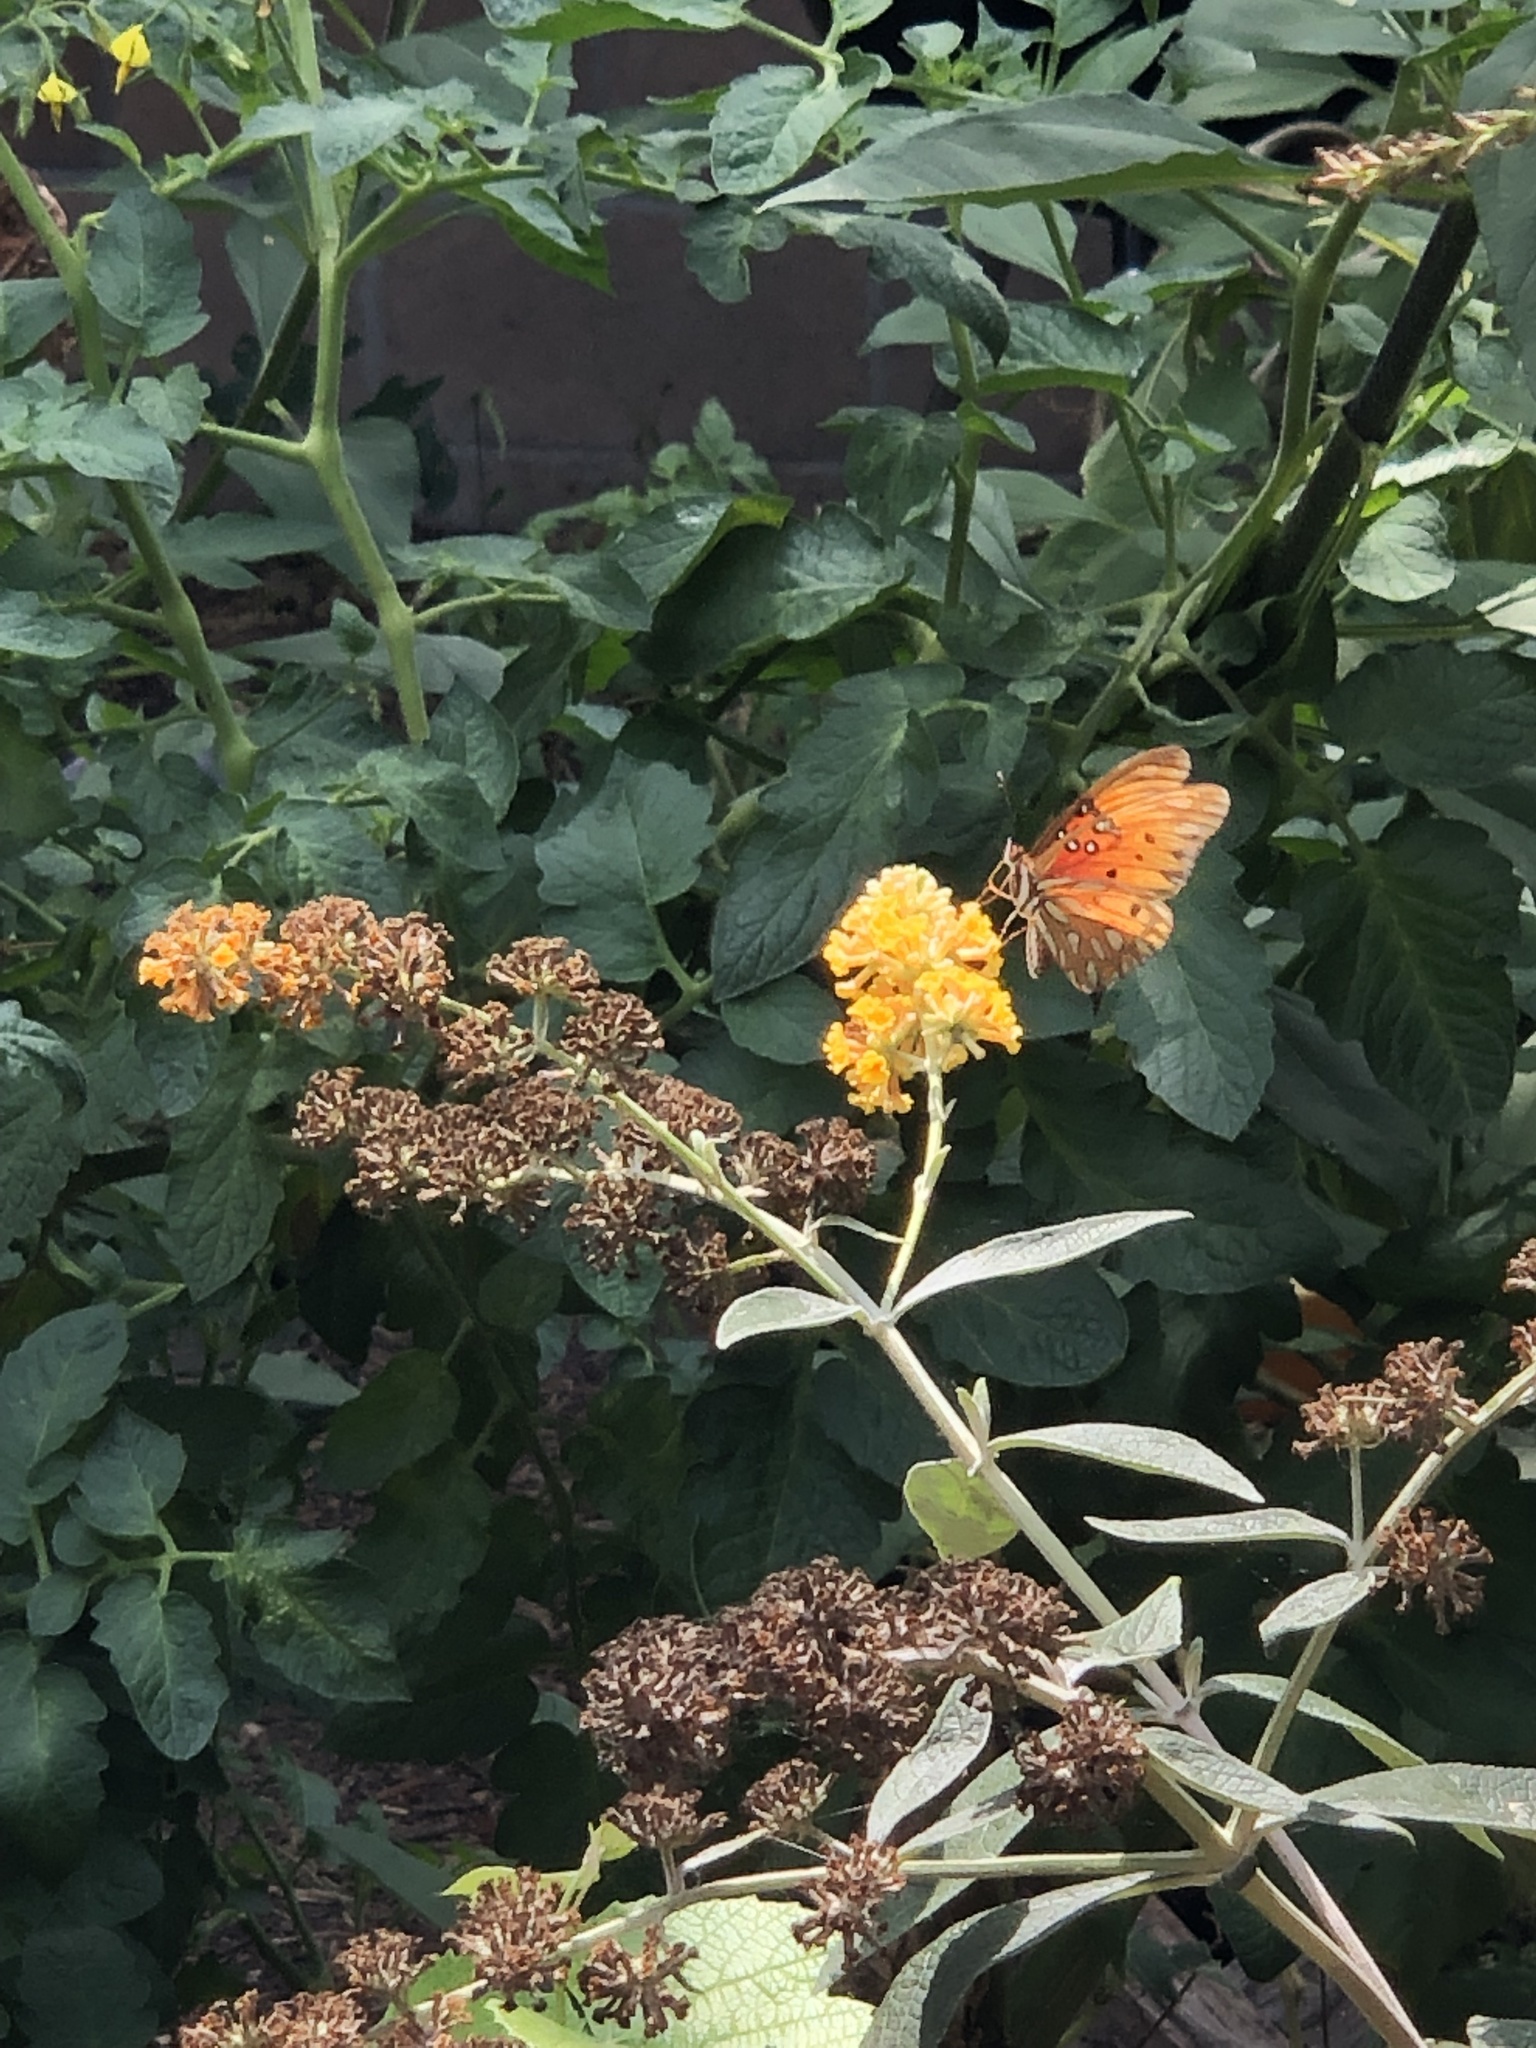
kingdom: Animalia
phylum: Arthropoda
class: Insecta
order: Lepidoptera
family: Nymphalidae
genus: Dione
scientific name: Dione vanillae
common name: Gulf fritillary
